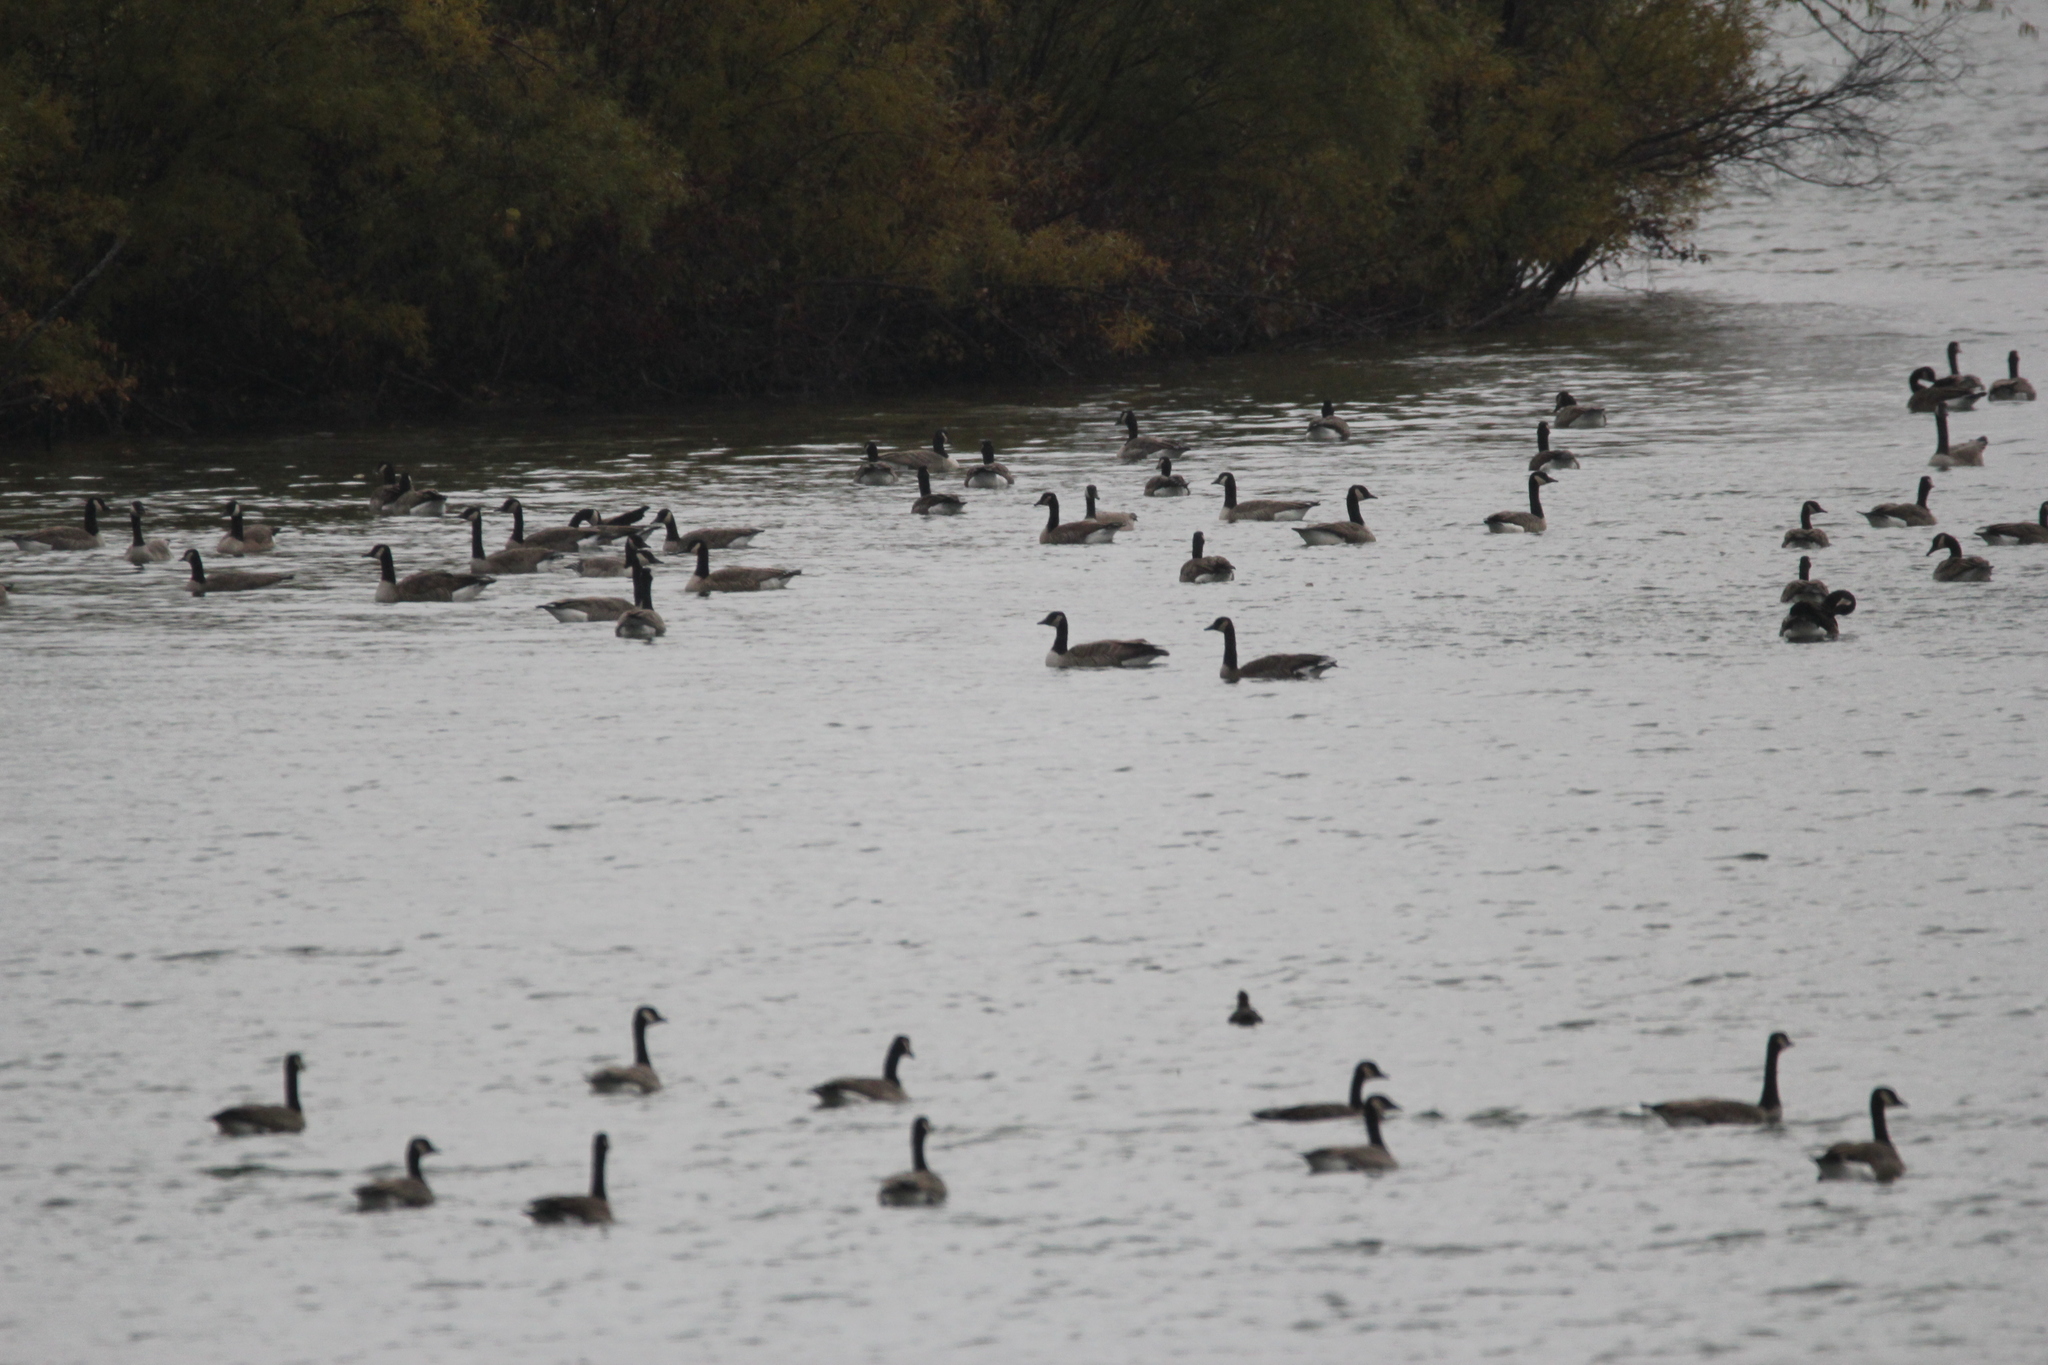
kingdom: Animalia
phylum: Chordata
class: Aves
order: Anseriformes
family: Anatidae
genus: Branta
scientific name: Branta canadensis
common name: Canada goose
